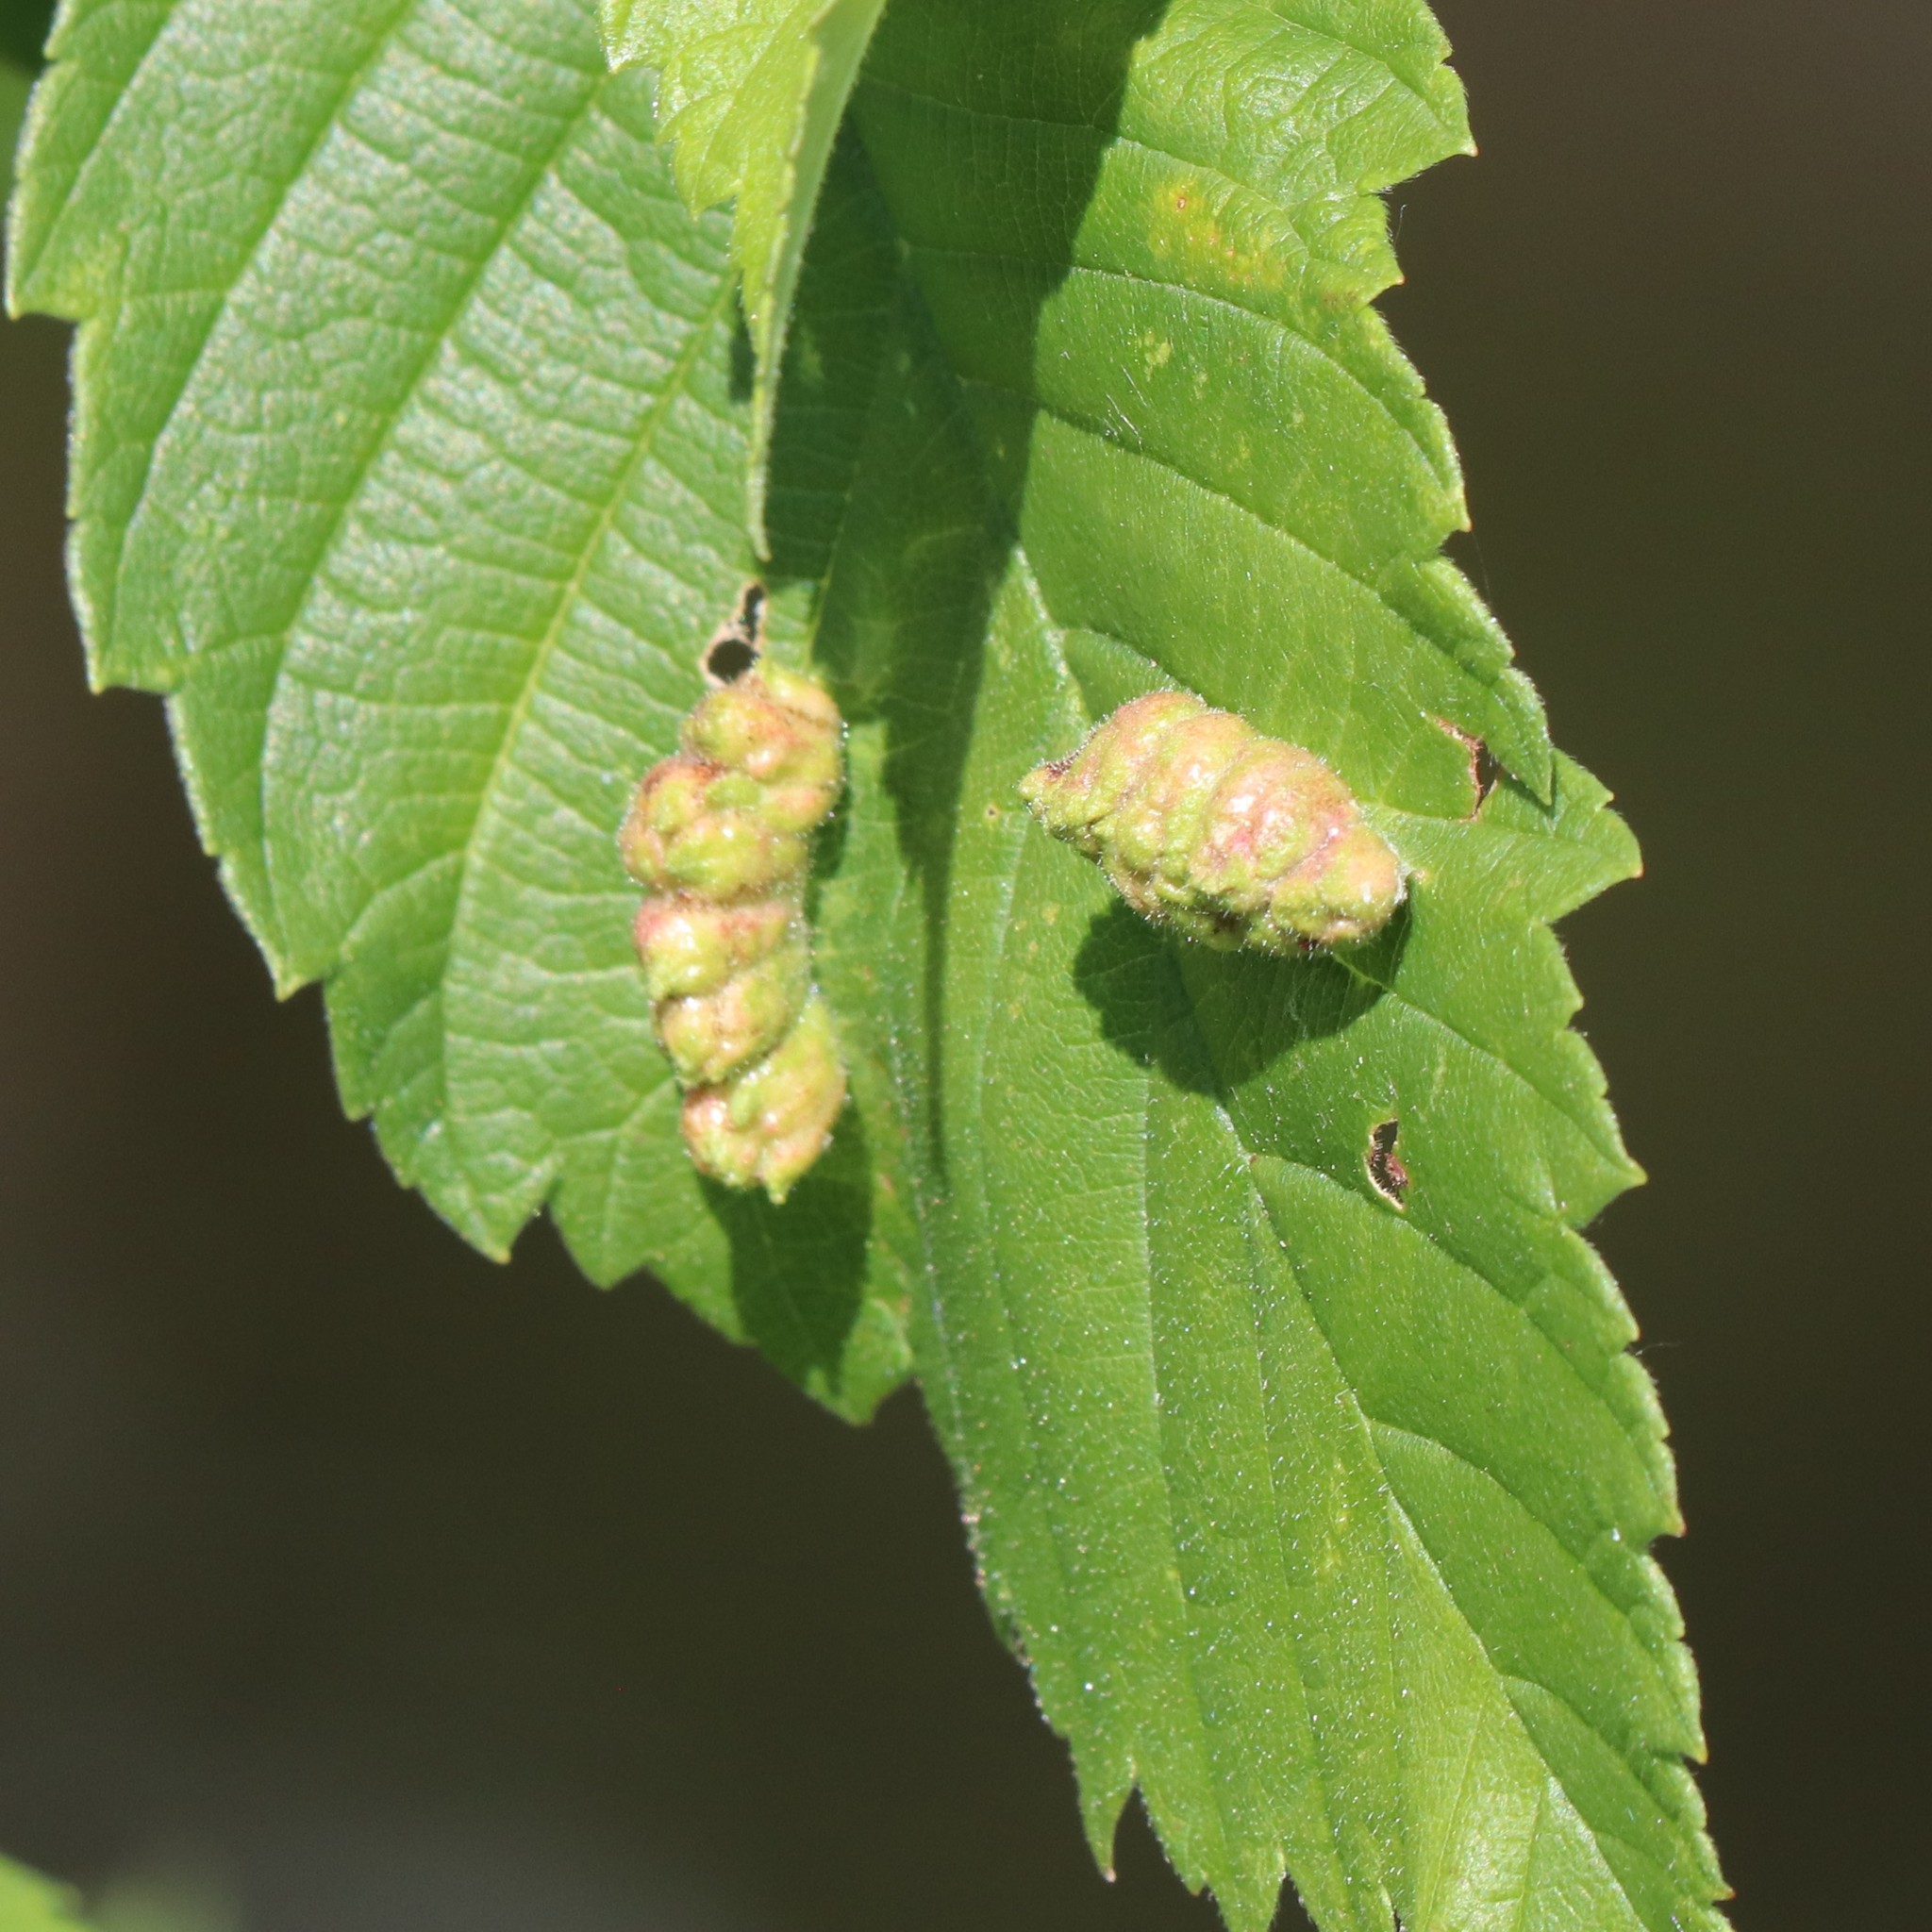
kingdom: Animalia
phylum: Arthropoda
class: Insecta
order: Hemiptera
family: Aphididae
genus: Colopha
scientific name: Colopha ulmicola
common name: Elm cockscombgall aphid
